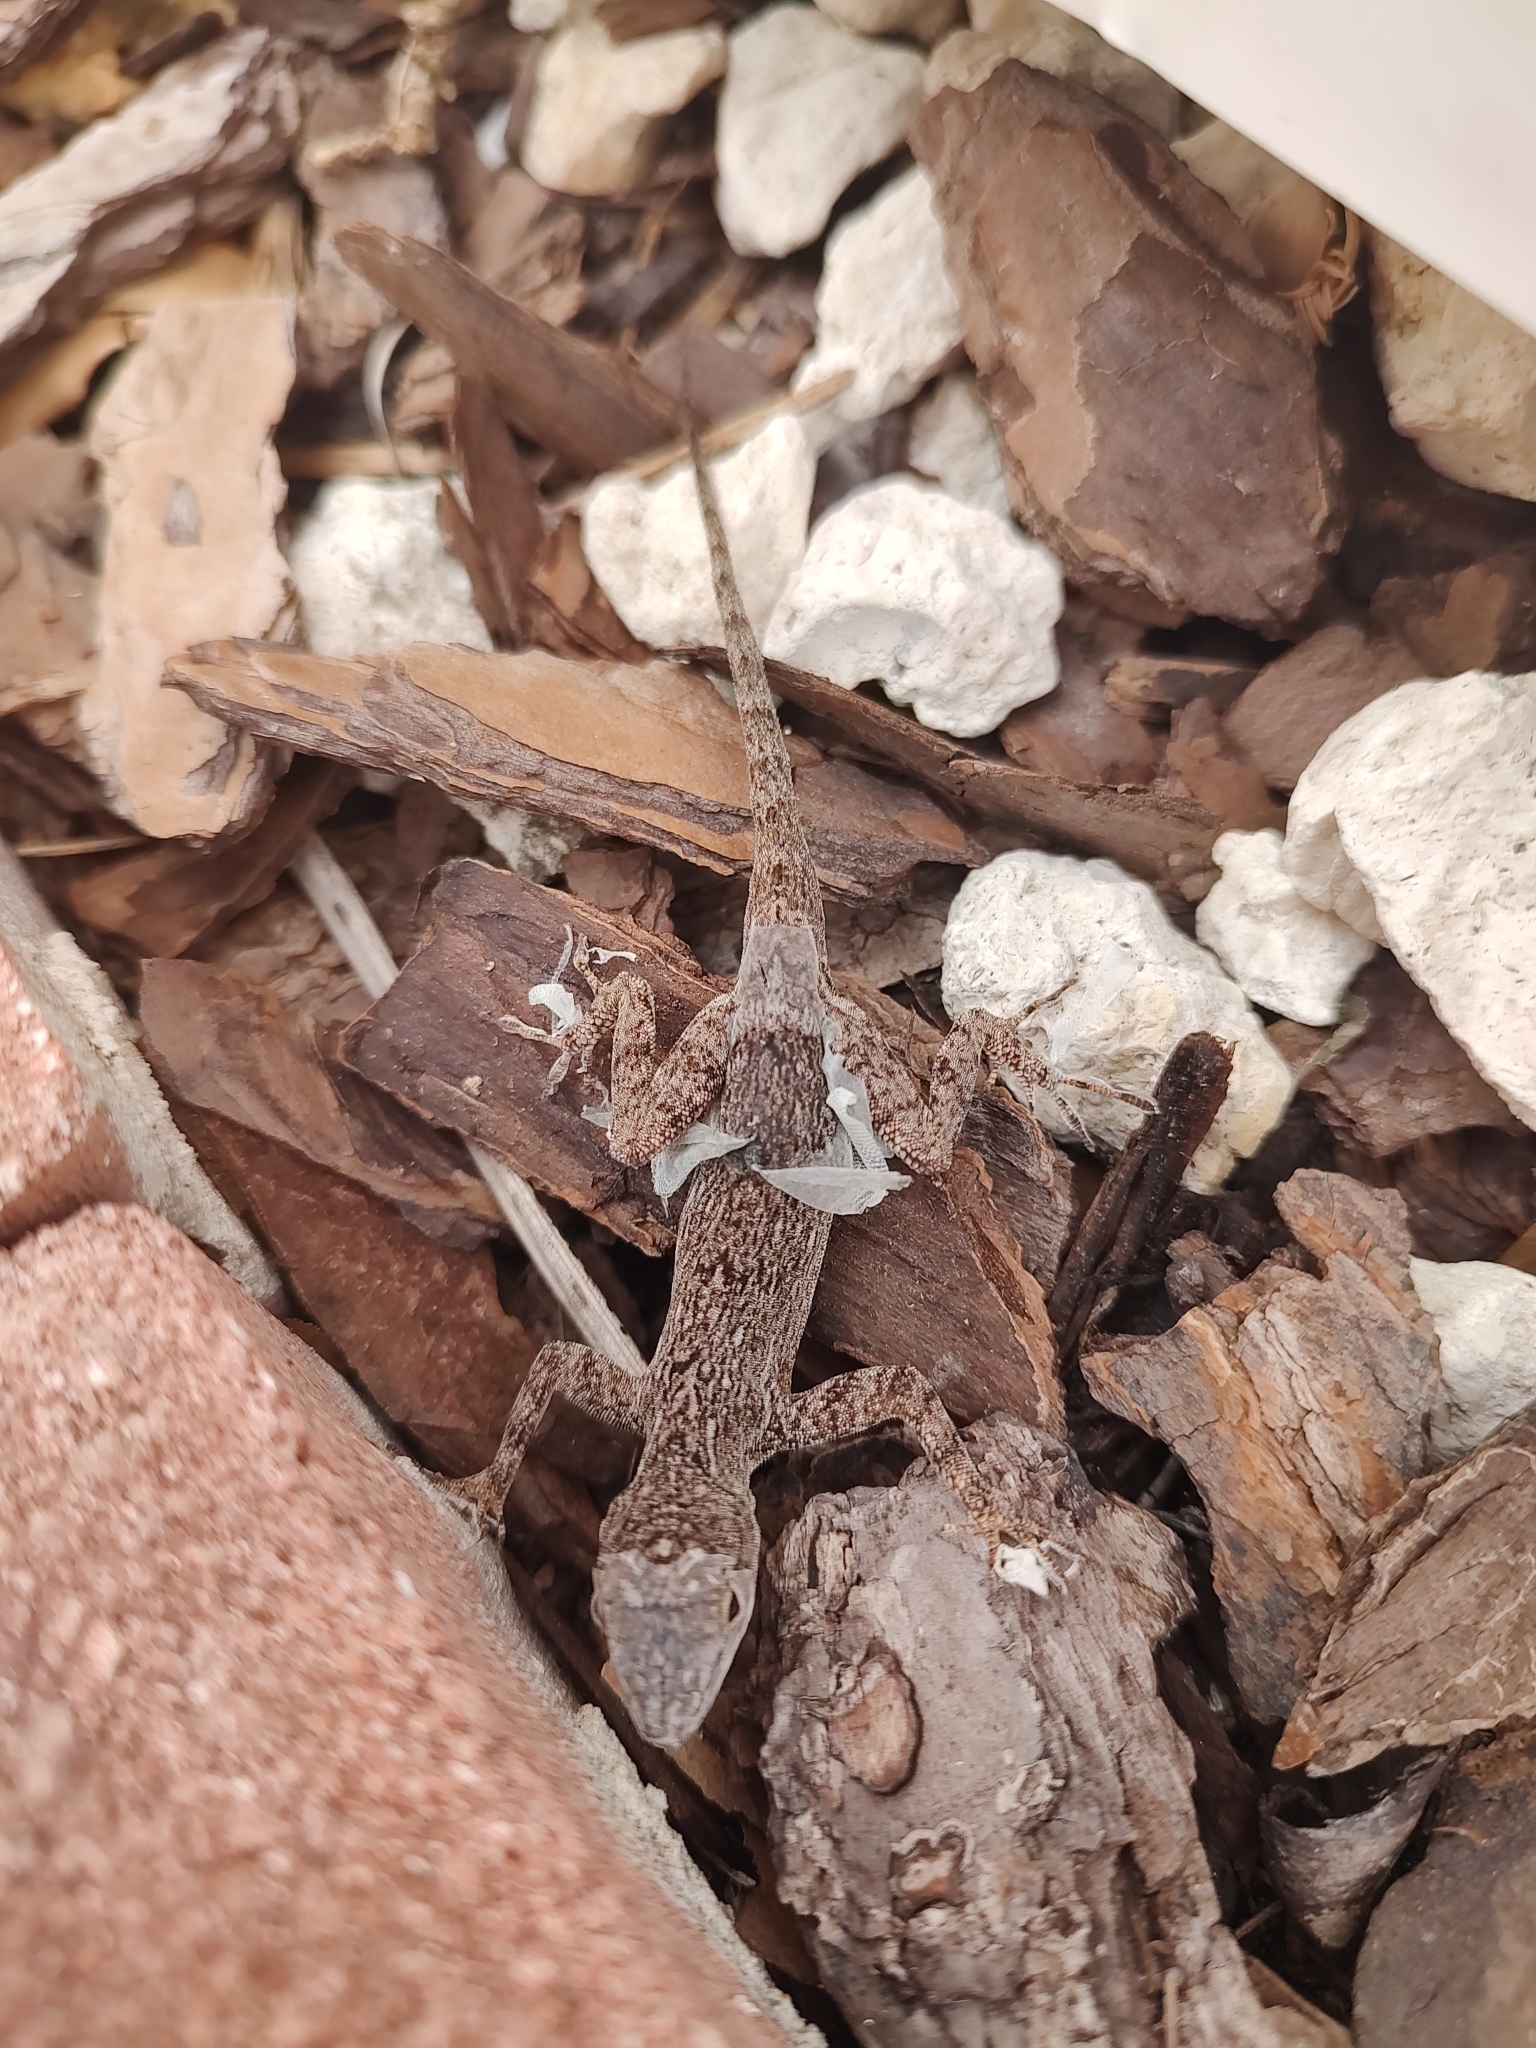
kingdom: Animalia
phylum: Chordata
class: Squamata
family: Dactyloidae
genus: Anolis
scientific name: Anolis distichus
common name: Bark anole
